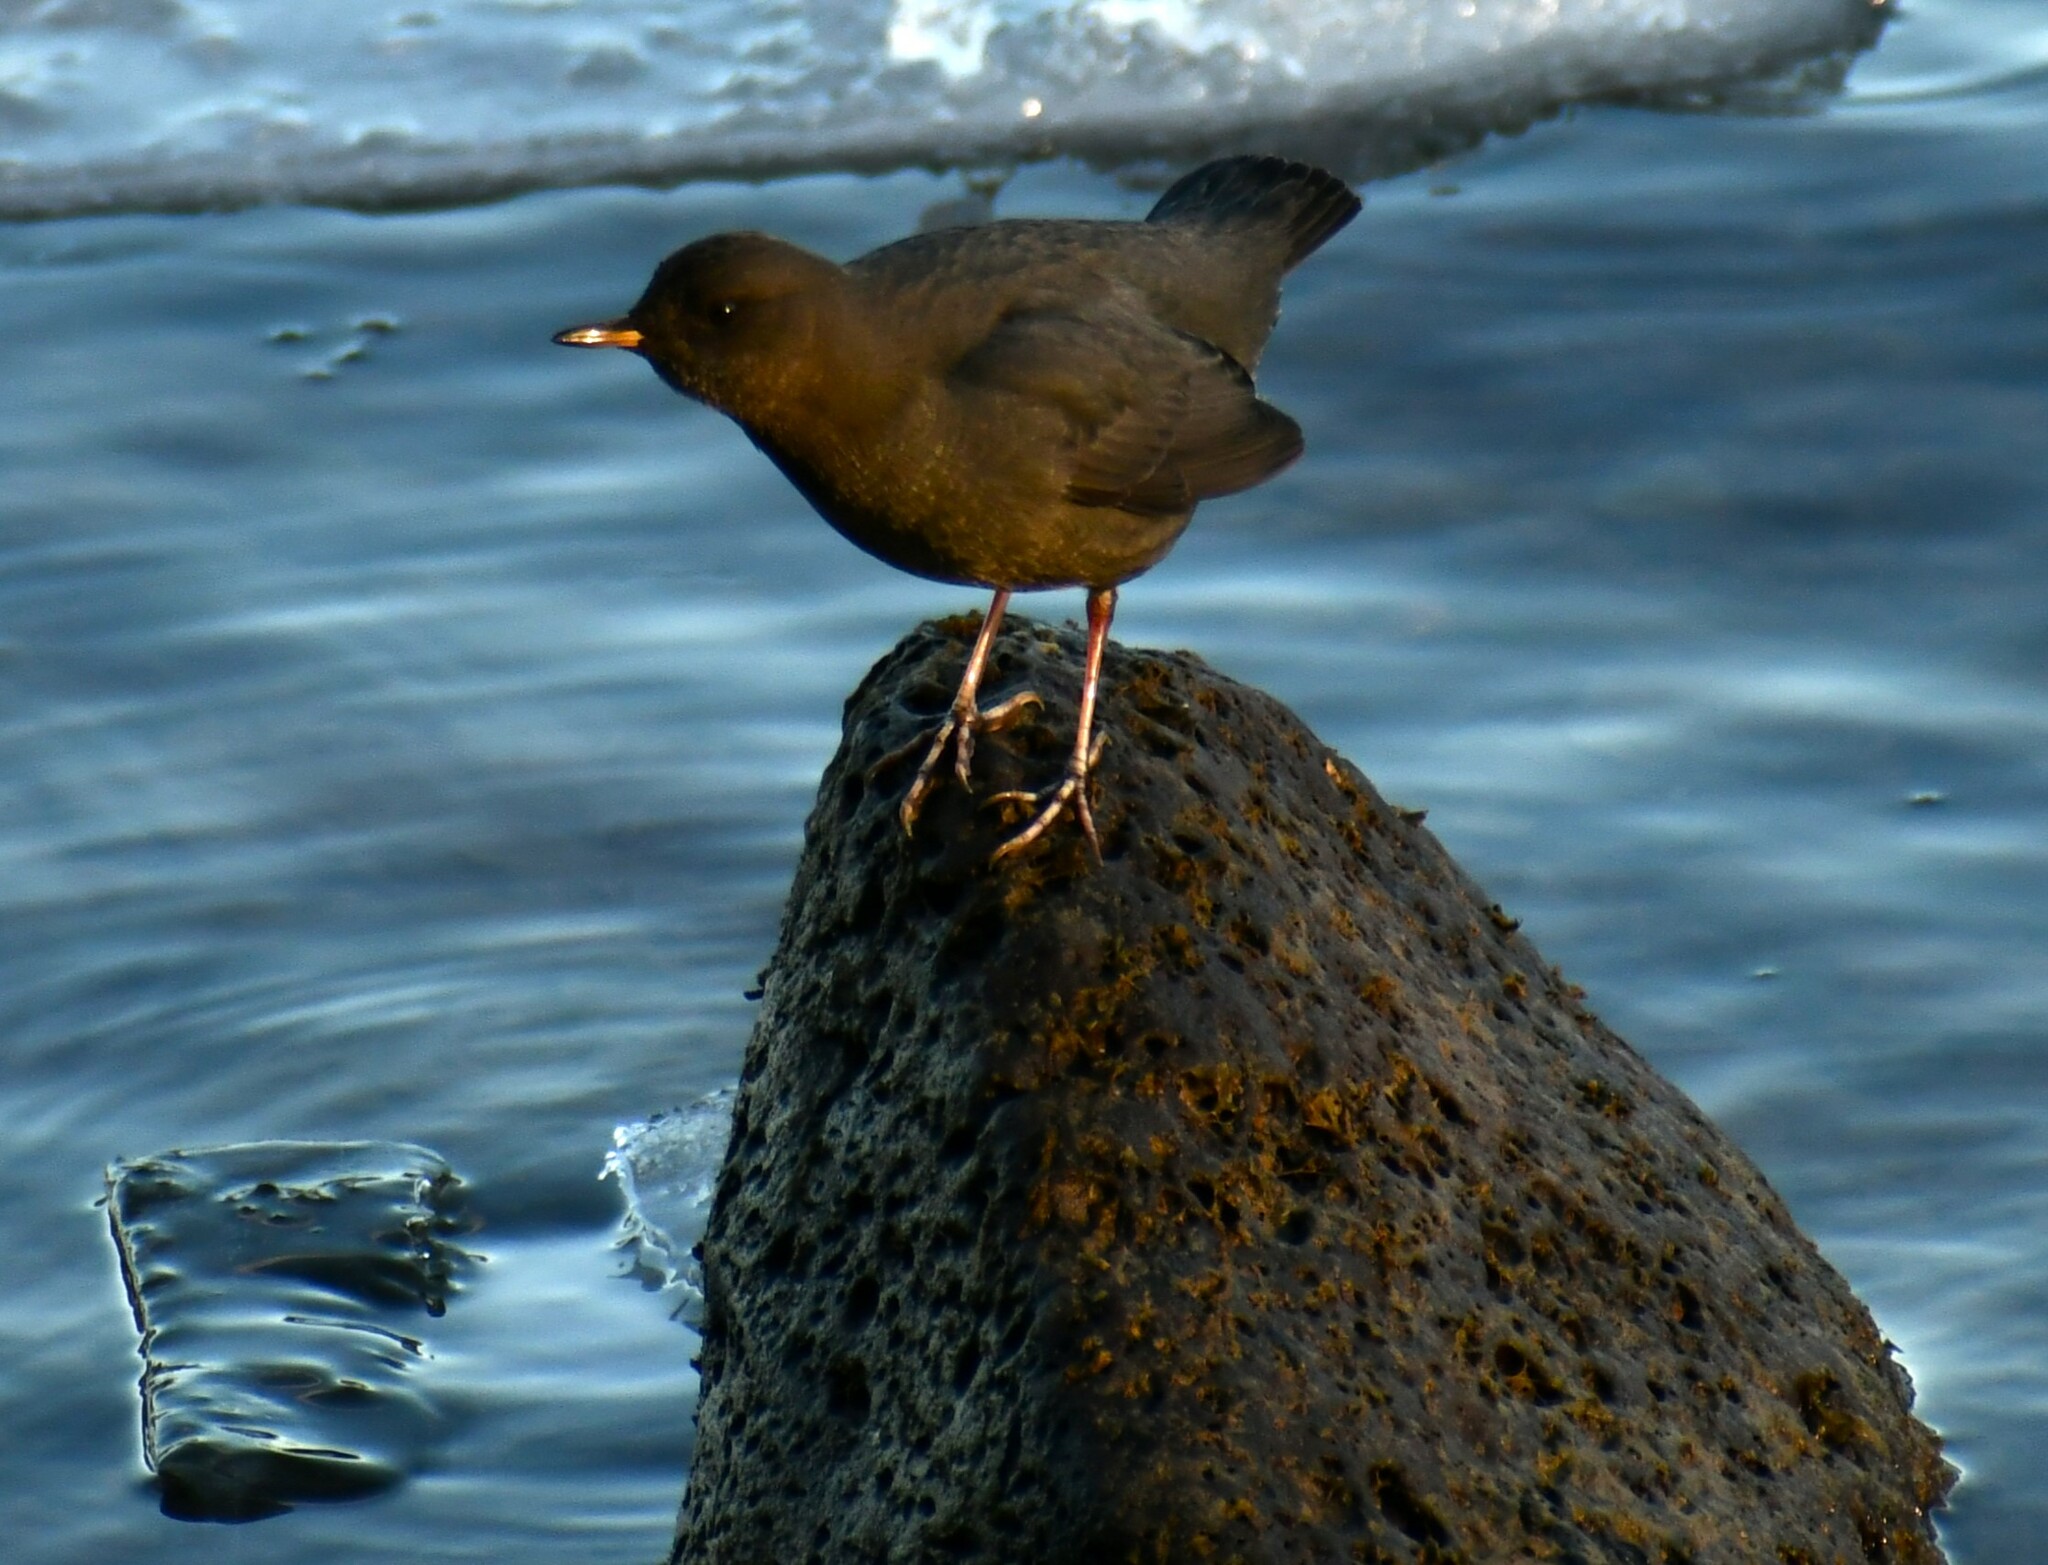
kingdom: Animalia
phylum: Chordata
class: Aves
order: Passeriformes
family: Cinclidae
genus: Cinclus
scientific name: Cinclus mexicanus
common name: American dipper
